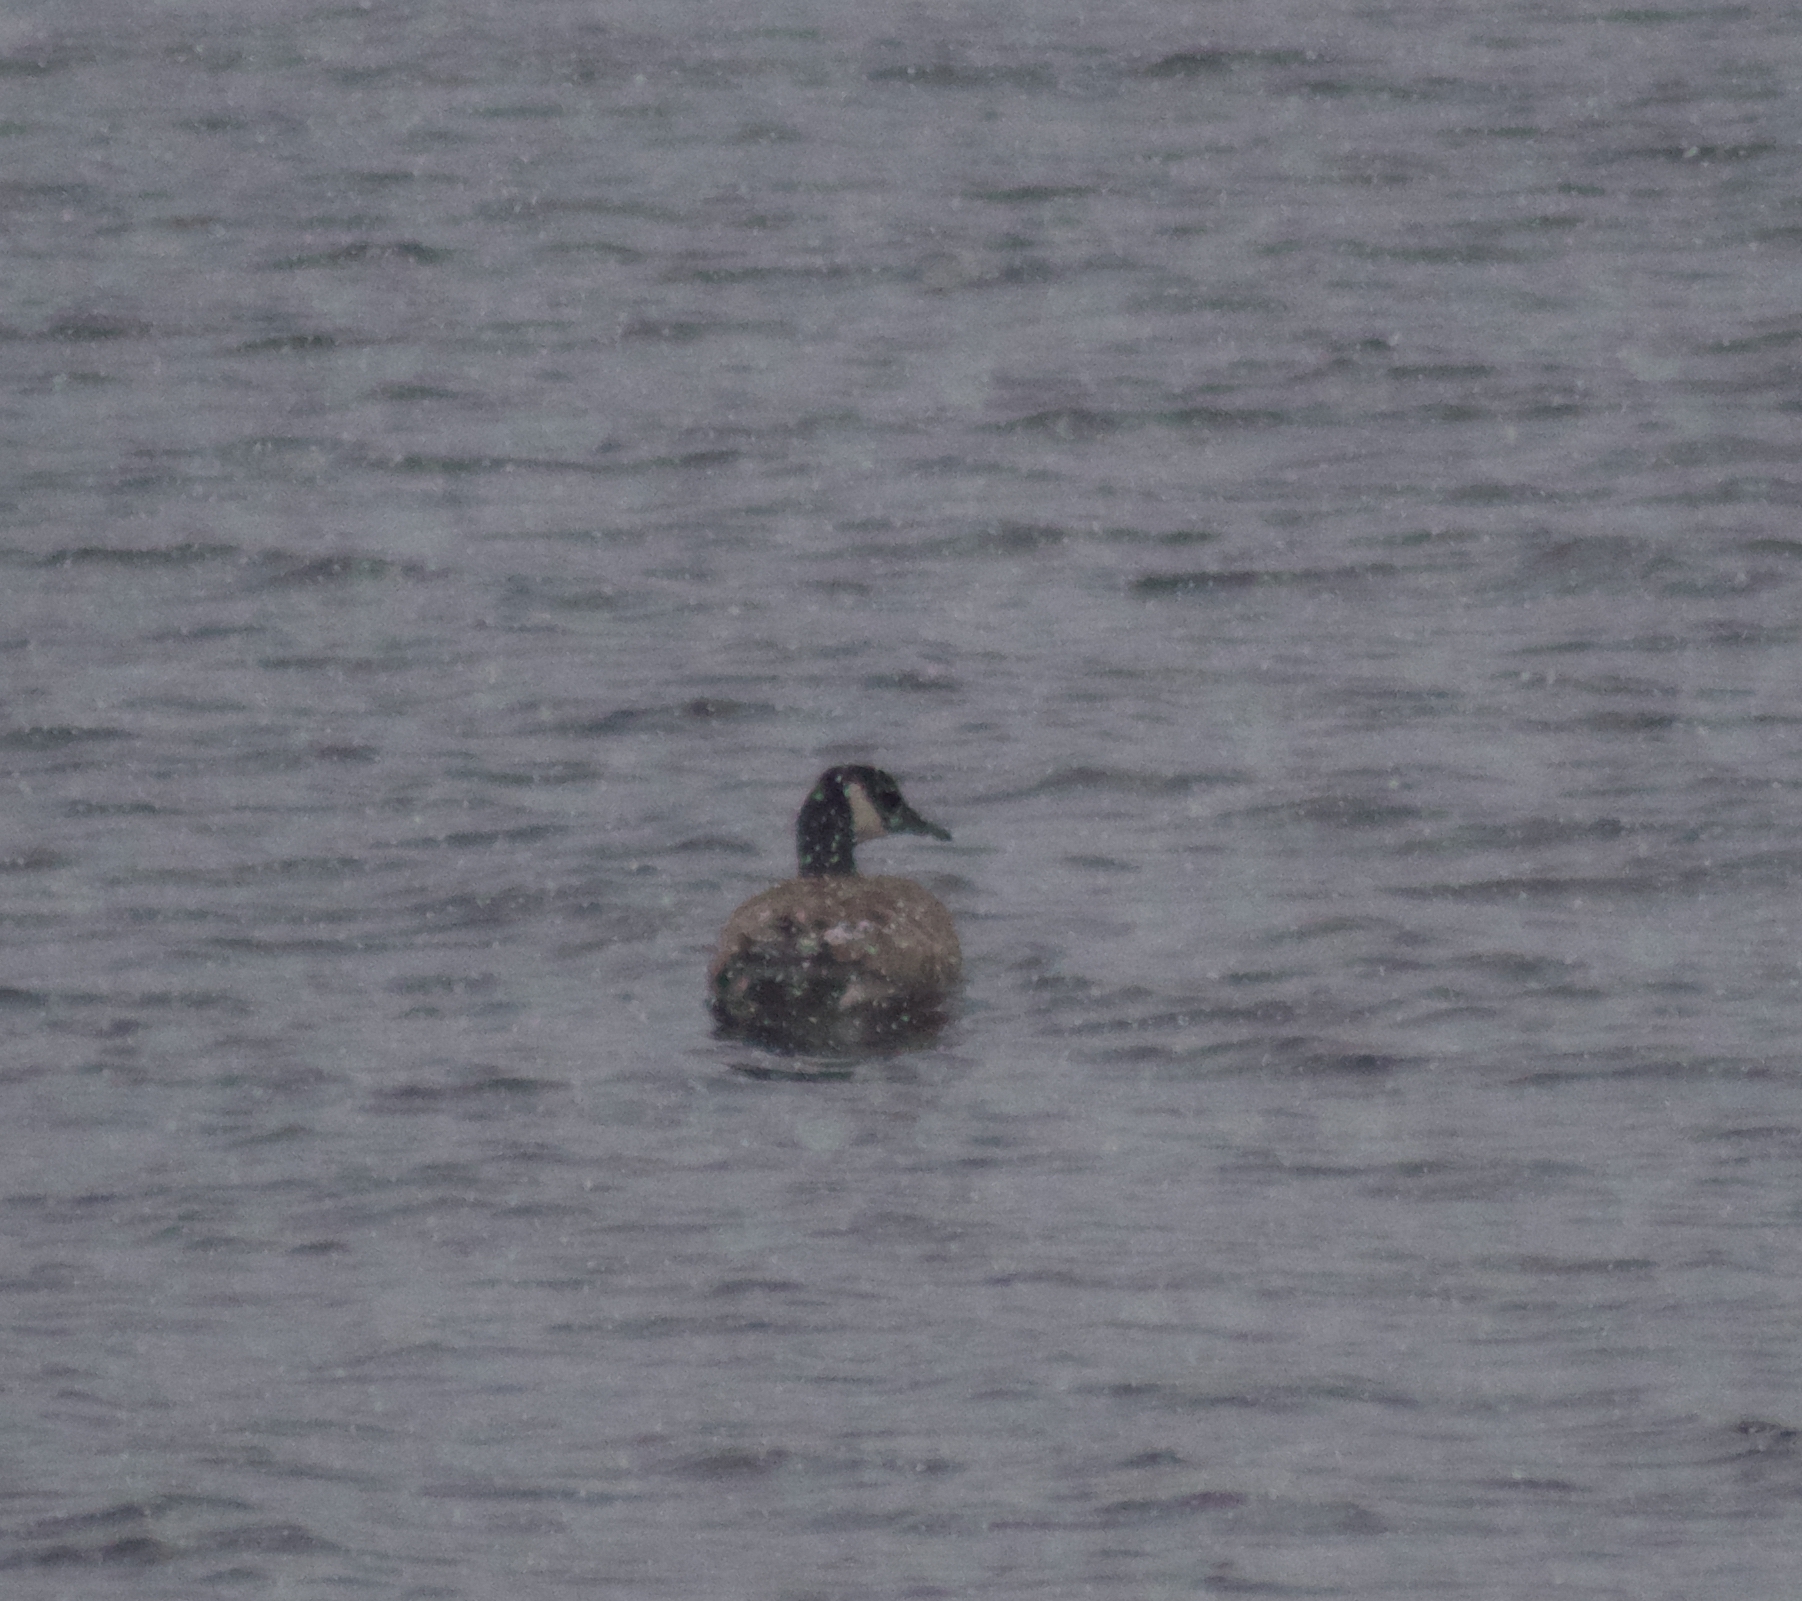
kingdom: Animalia
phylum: Chordata
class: Aves
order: Anseriformes
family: Anatidae
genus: Branta
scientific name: Branta canadensis
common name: Canada goose
